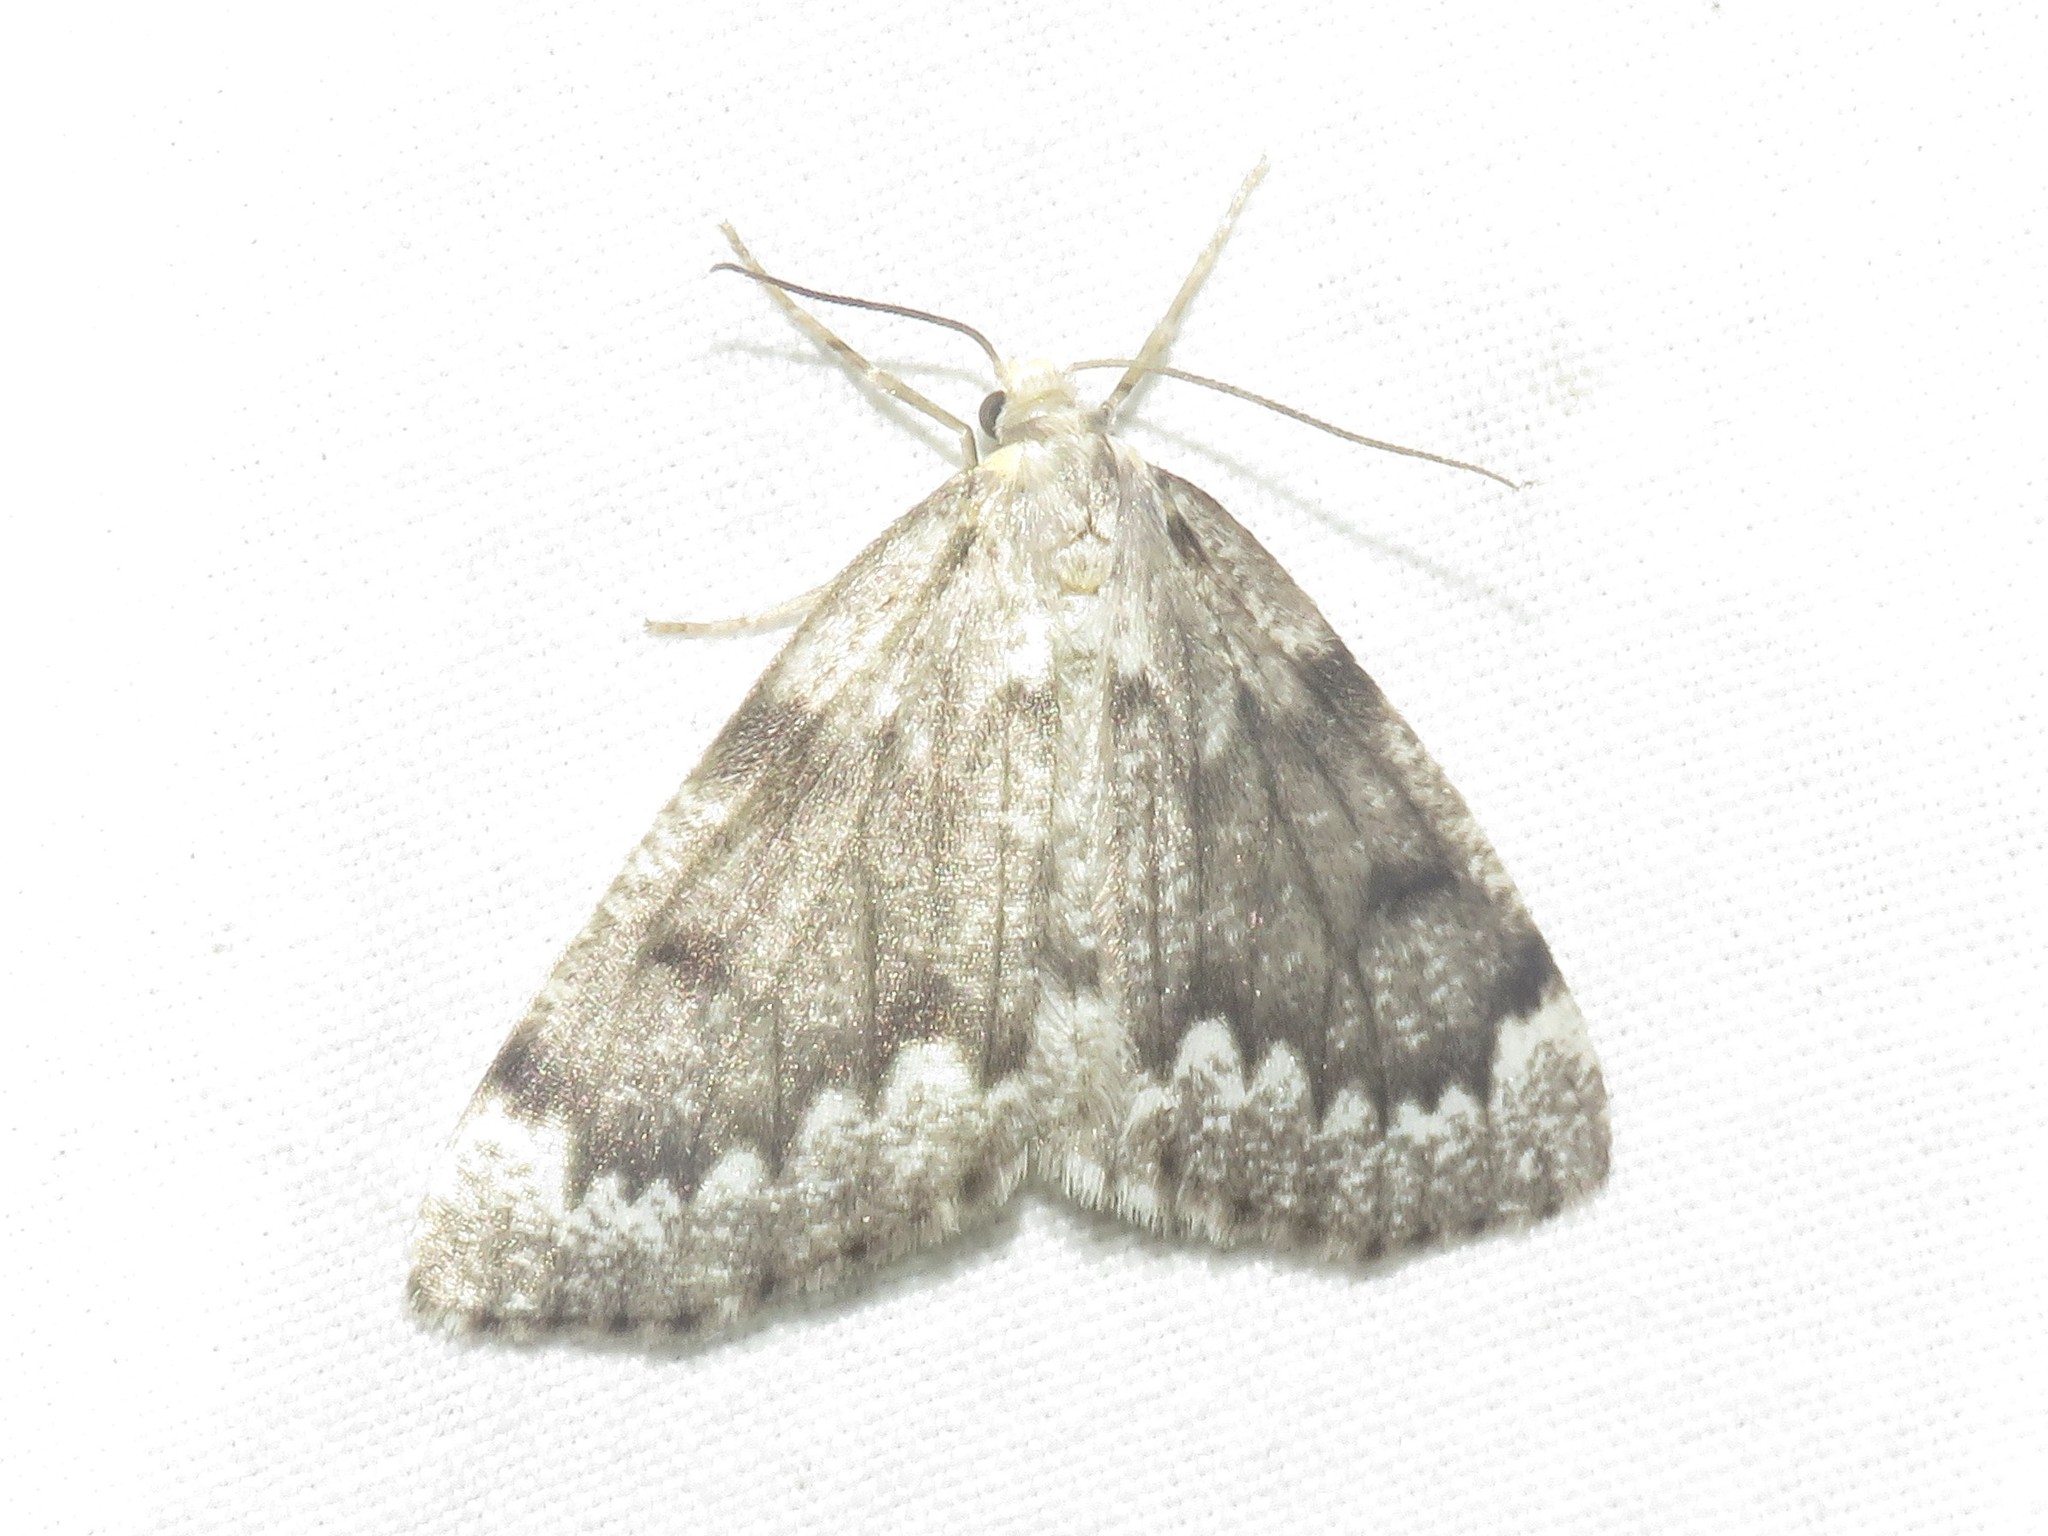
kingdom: Animalia
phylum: Arthropoda
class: Insecta
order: Lepidoptera
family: Geometridae
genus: Nepytia
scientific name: Nepytia canosaria
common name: False hemlock looper
